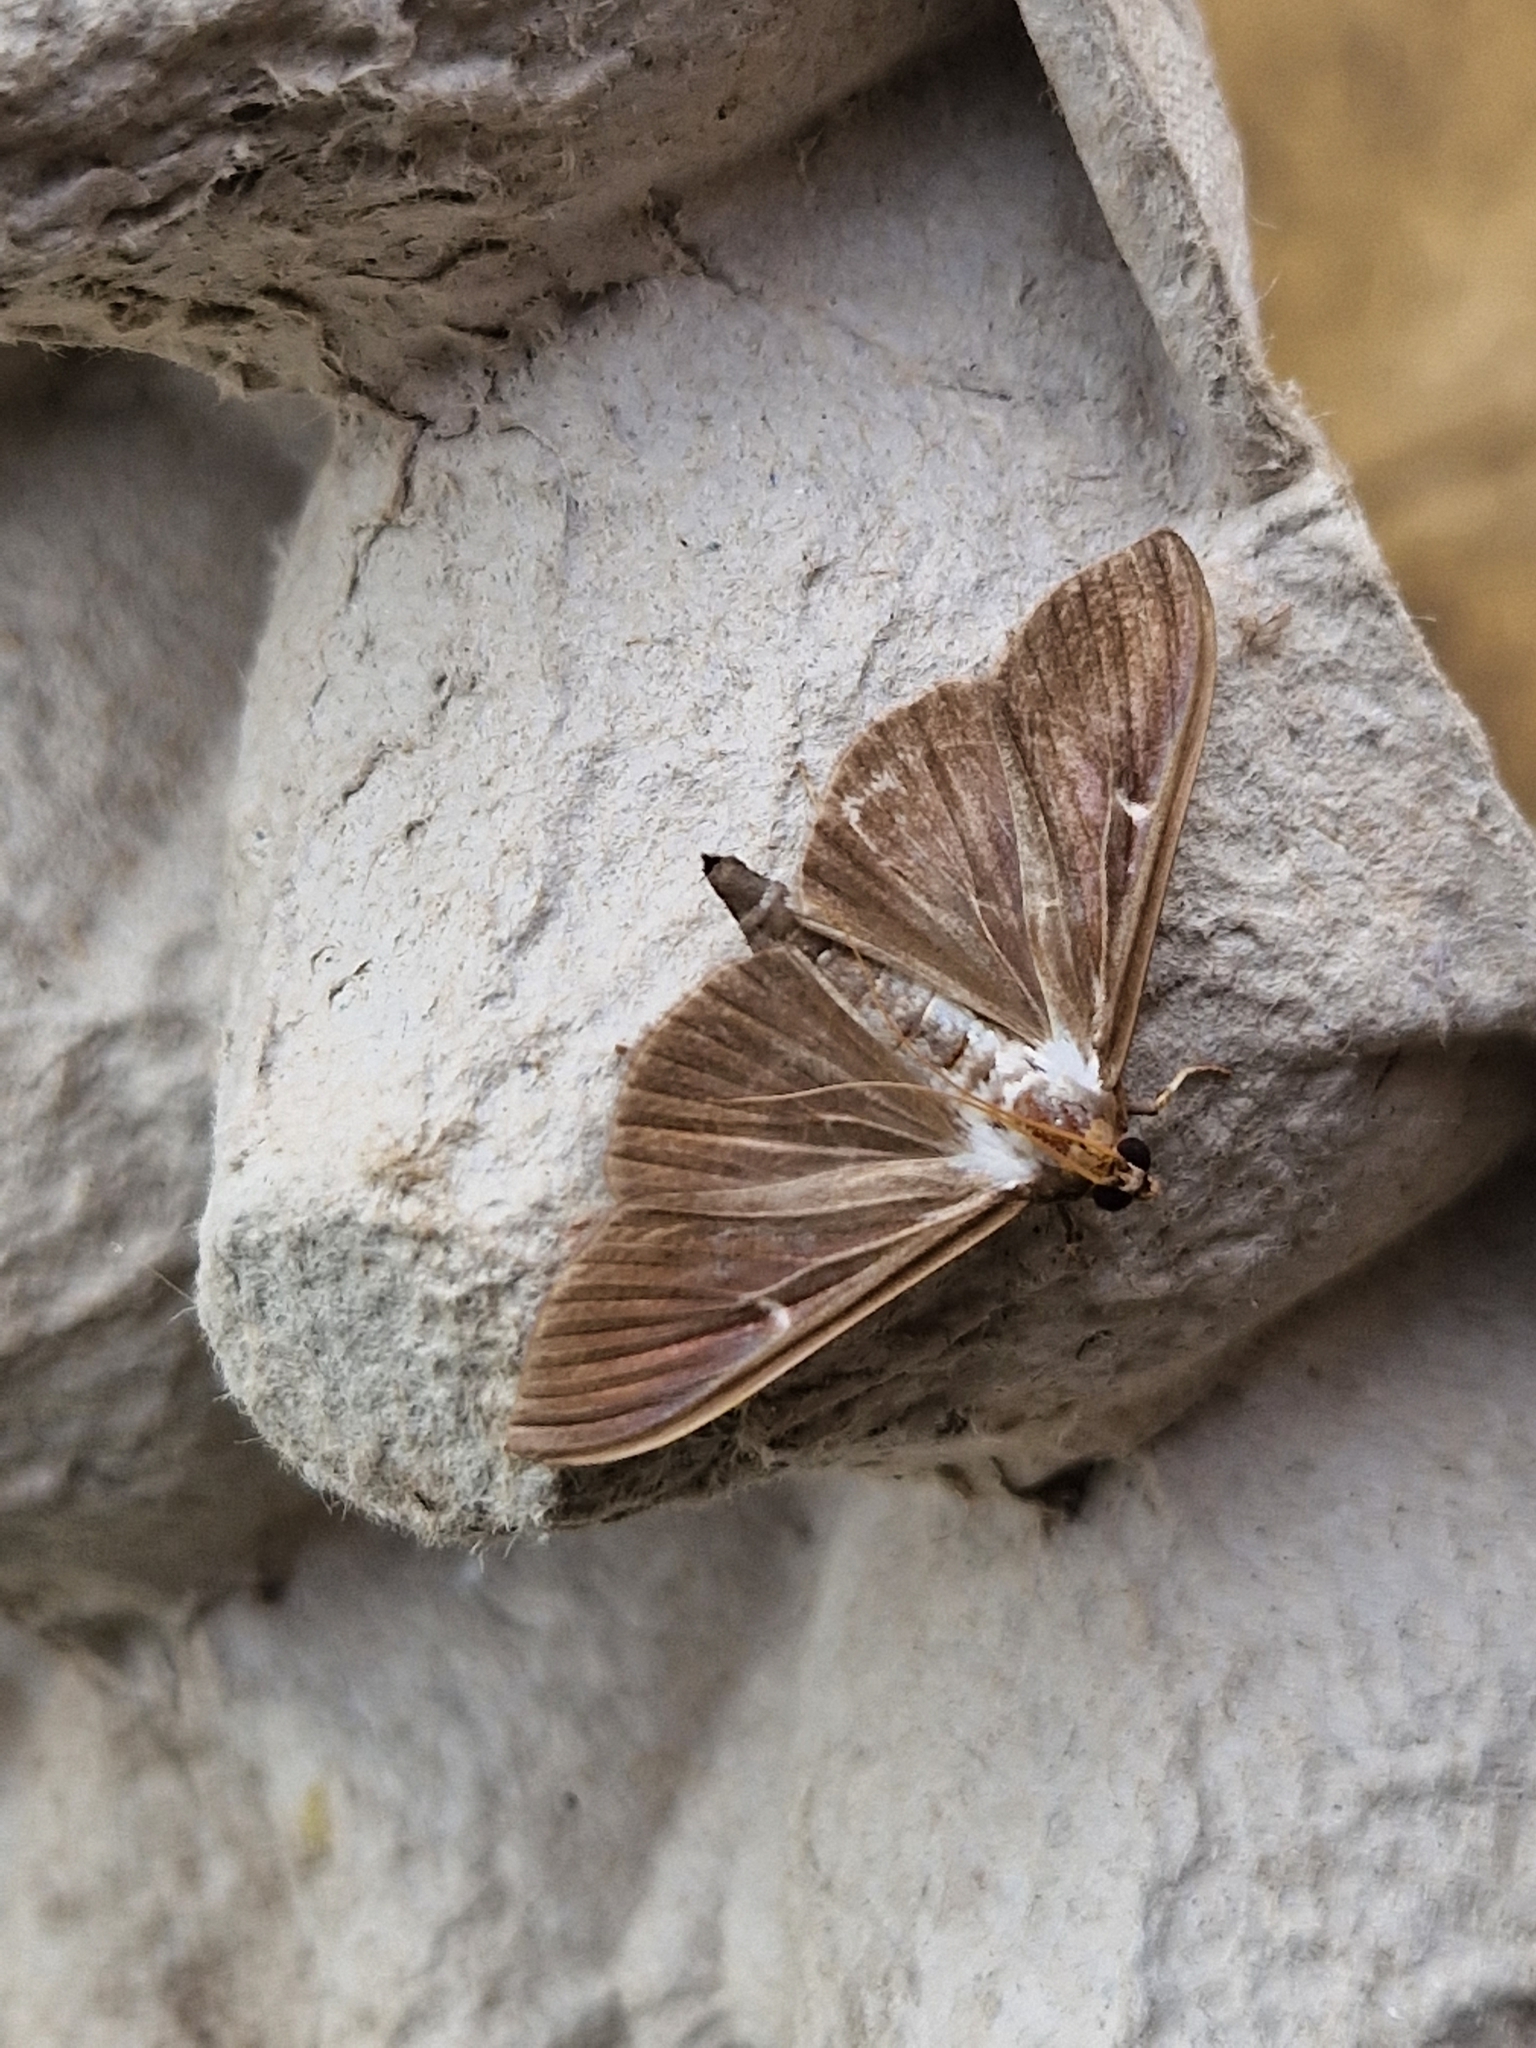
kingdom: Animalia
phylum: Arthropoda
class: Insecta
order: Lepidoptera
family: Crambidae
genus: Cydalima
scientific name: Cydalima perspectalis
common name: Box tree moth
